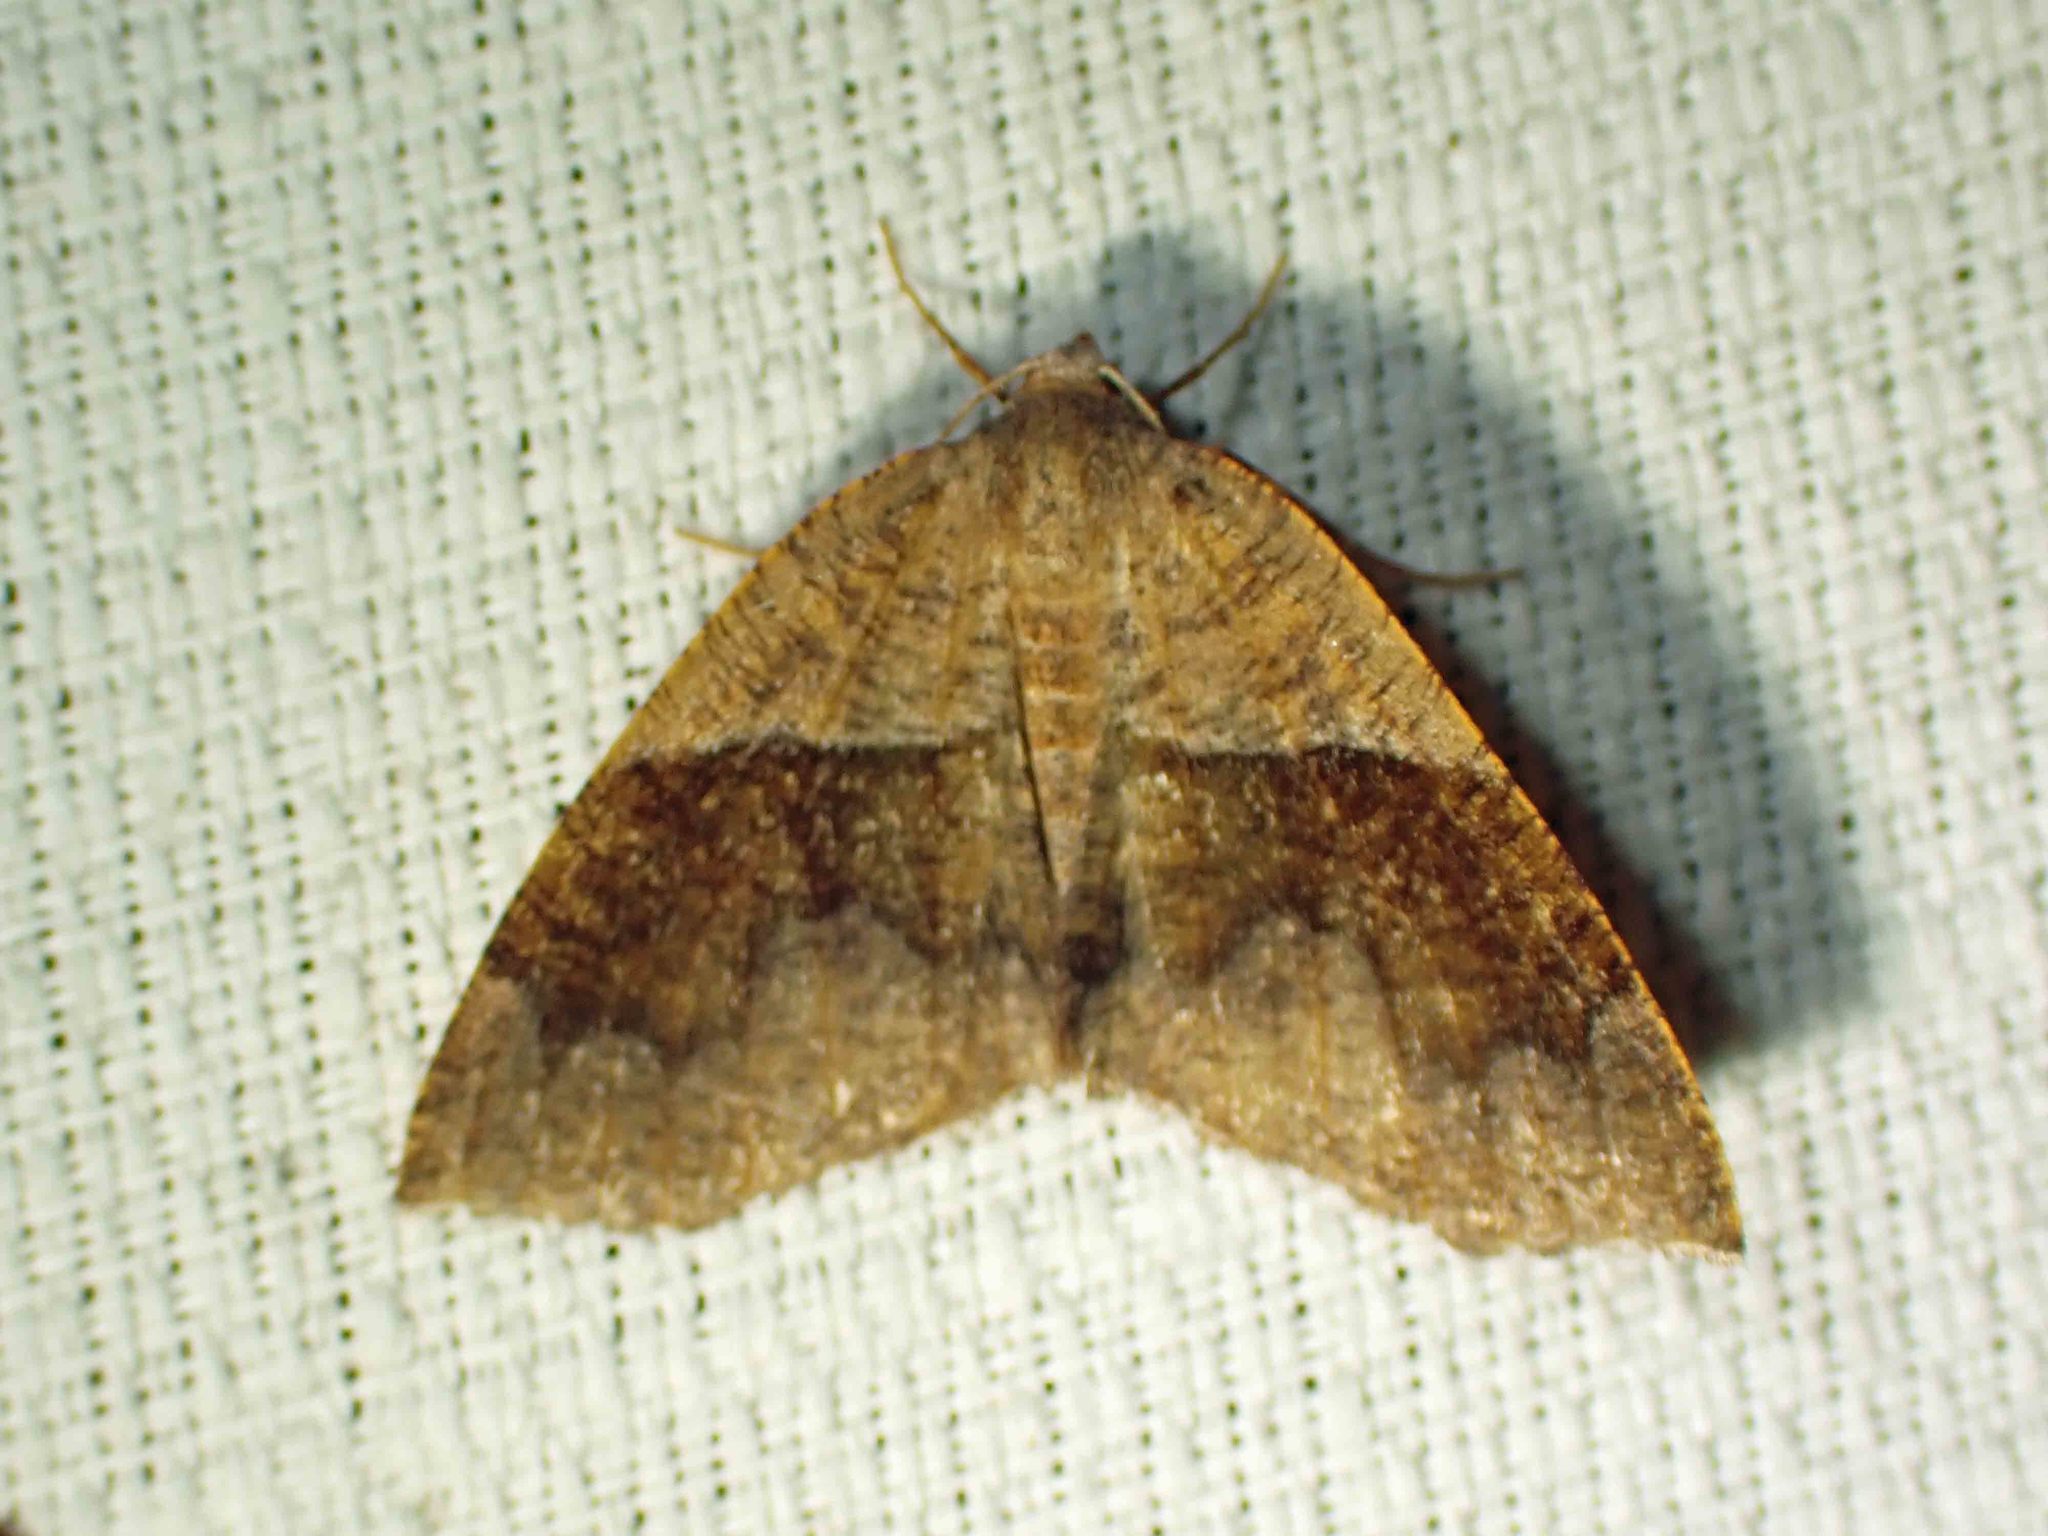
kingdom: Animalia
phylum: Arthropoda
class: Insecta
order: Lepidoptera
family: Geometridae
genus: Plagodis
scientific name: Plagodis pulveraria
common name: Barred umber
